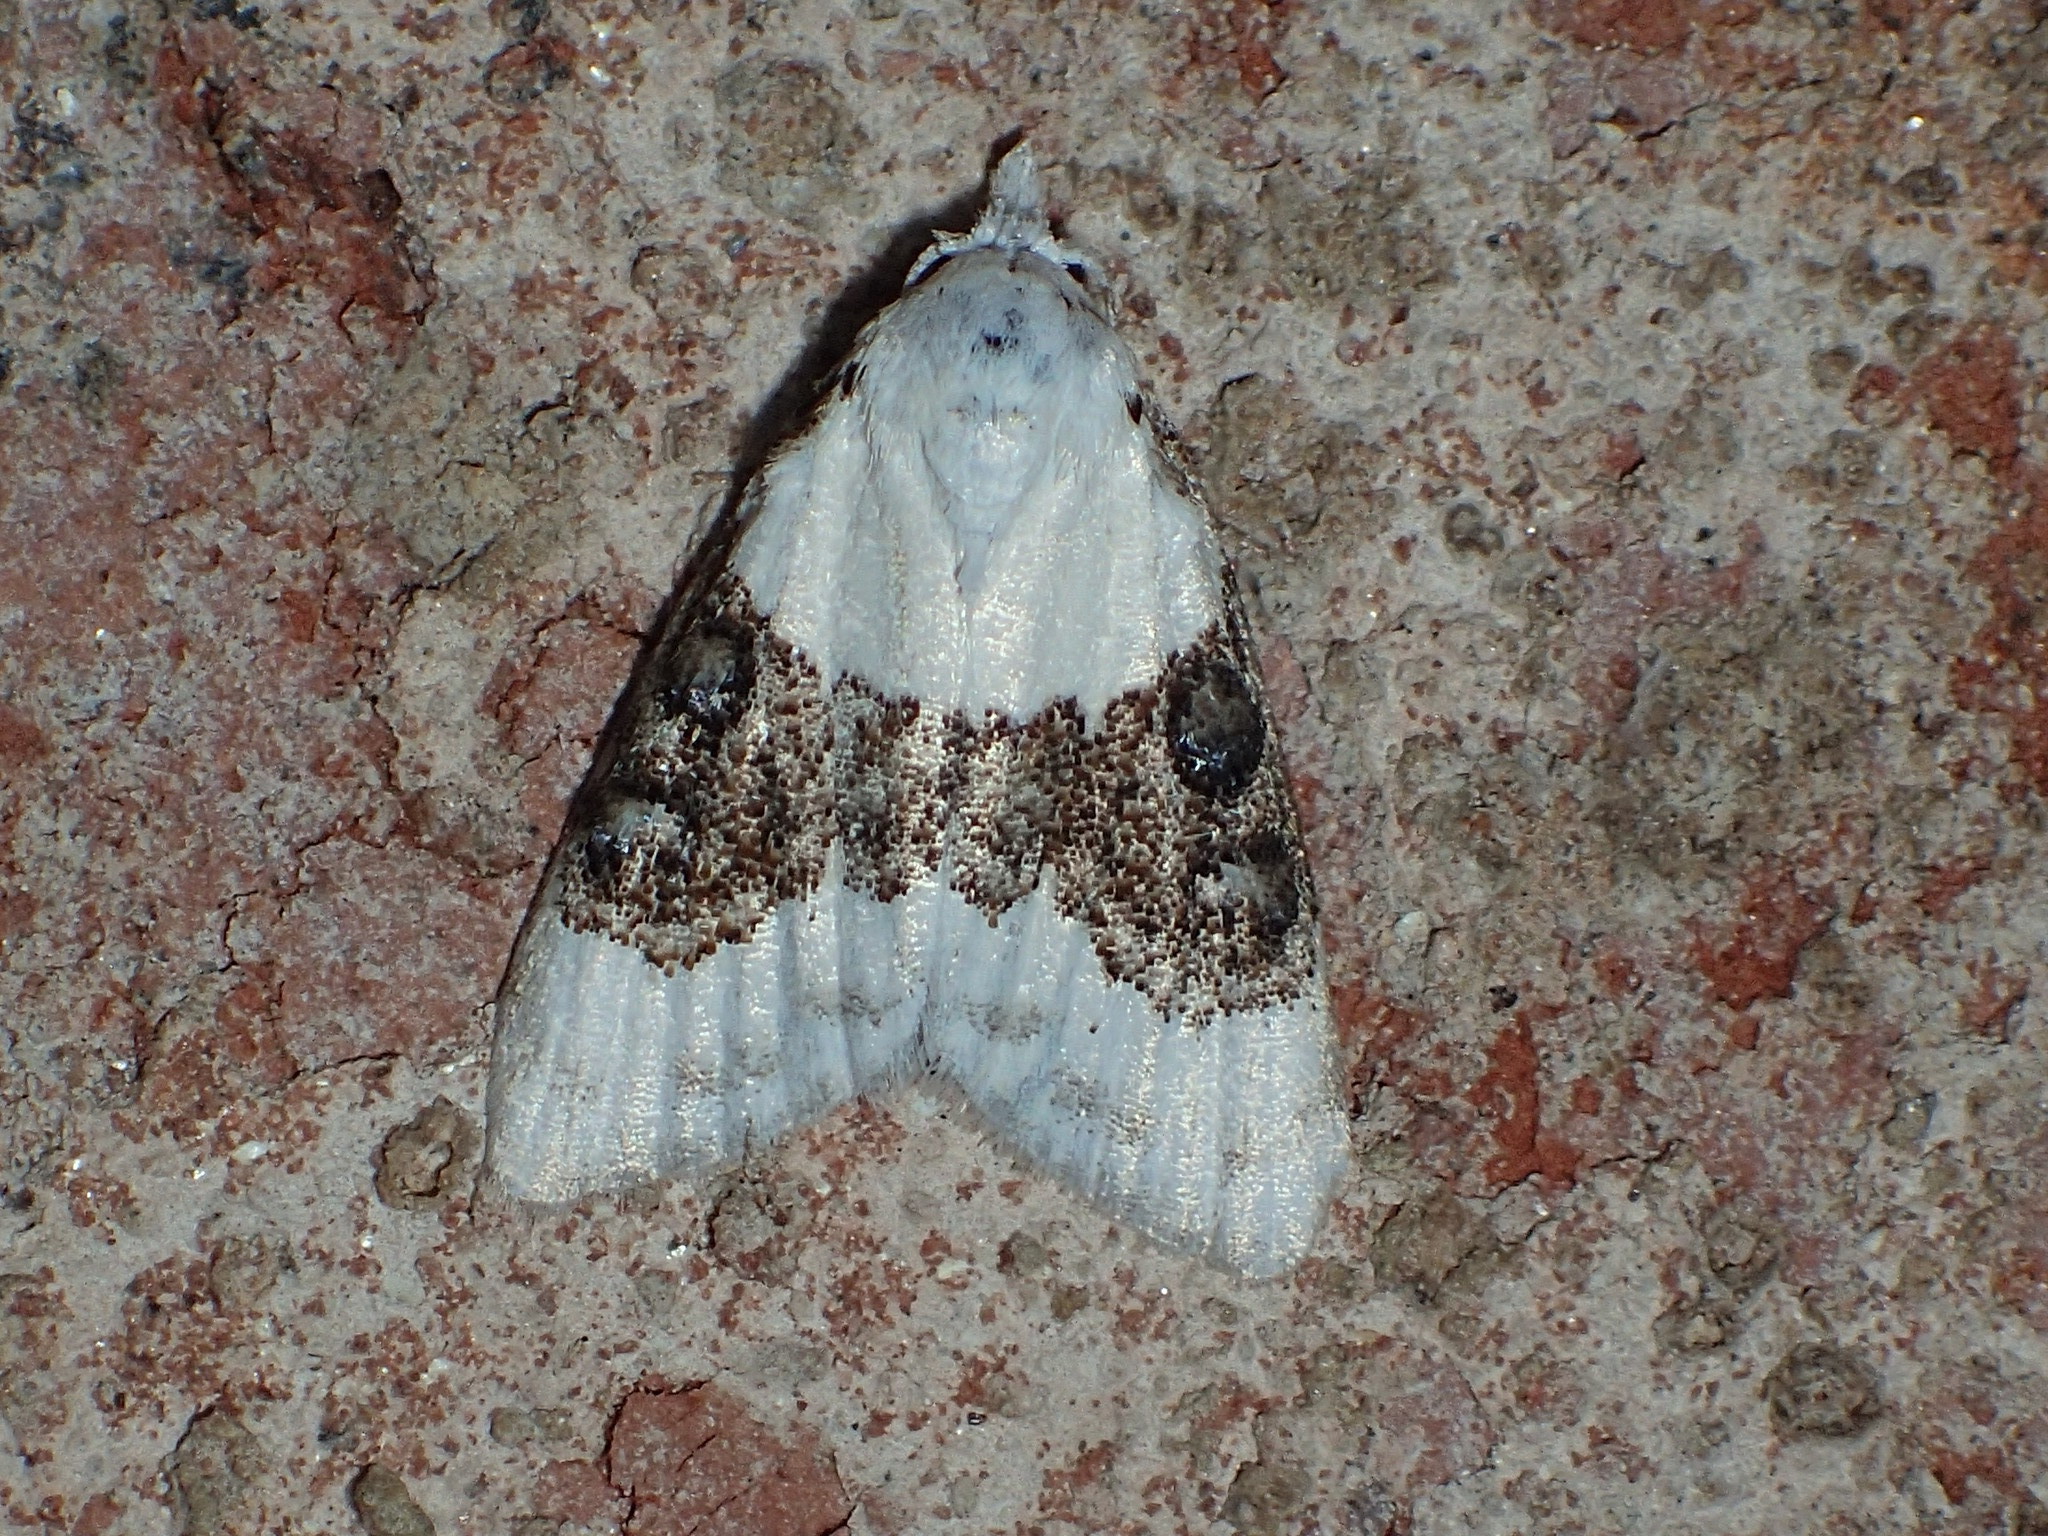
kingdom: Animalia
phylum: Arthropoda
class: Insecta
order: Lepidoptera
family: Nolidae
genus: Nola
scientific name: Nola pustulata
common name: Sharp-blotched nola moth
